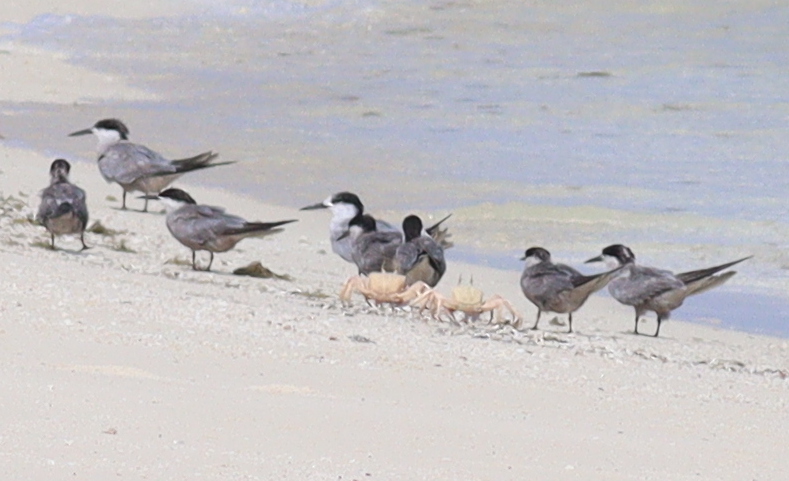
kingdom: Animalia
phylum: Chordata
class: Aves
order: Charadriiformes
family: Laridae
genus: Sterna
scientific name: Sterna repressa
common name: White-cheeked tern
